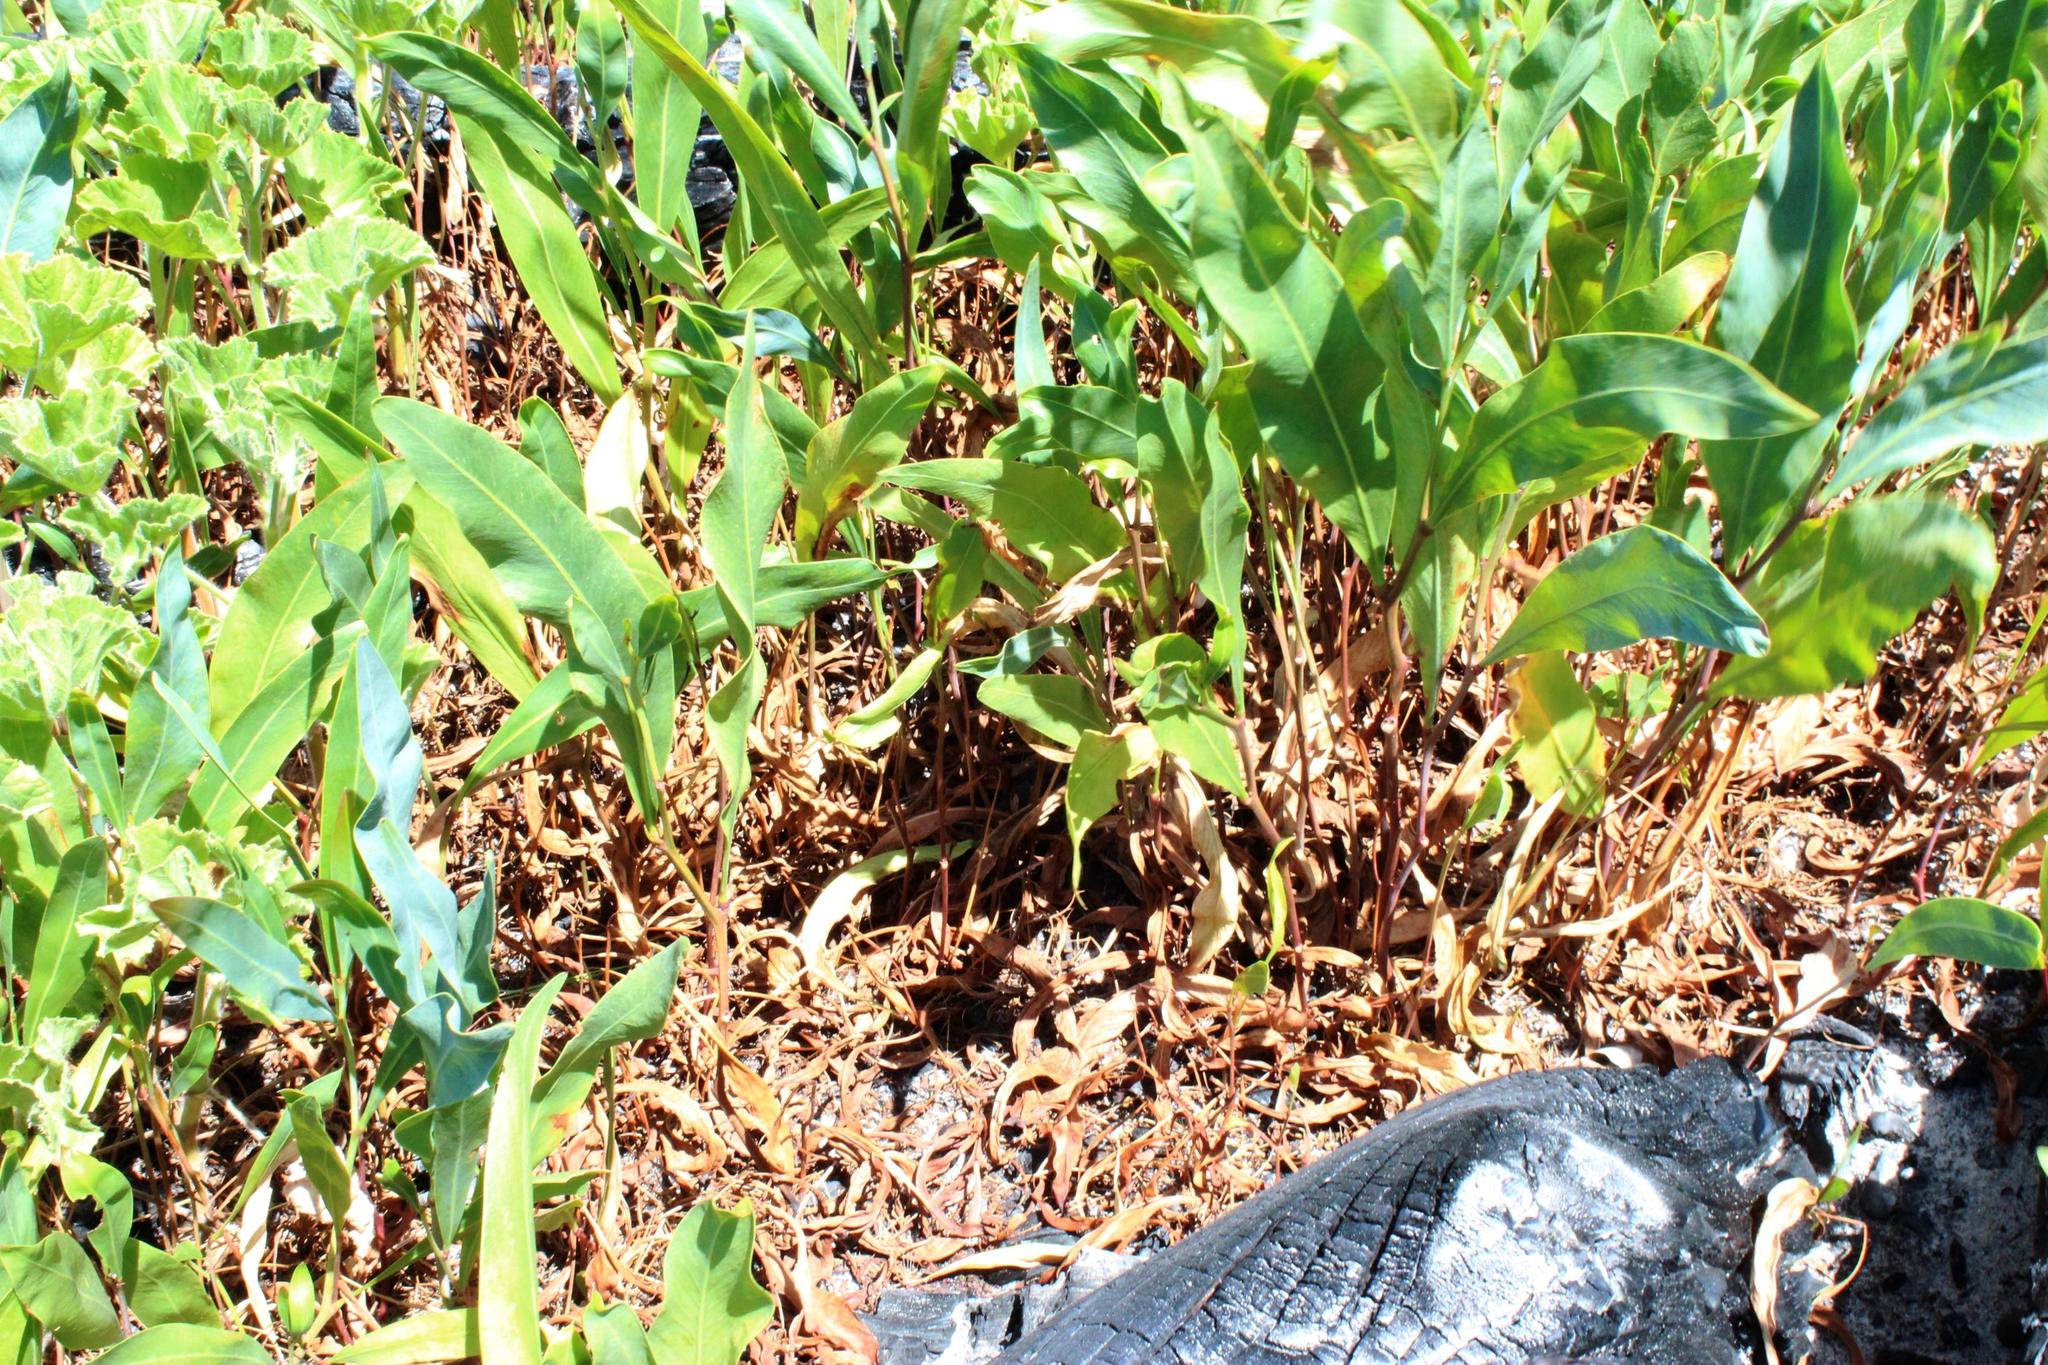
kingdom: Plantae
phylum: Tracheophyta
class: Magnoliopsida
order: Fabales
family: Fabaceae
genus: Acacia
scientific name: Acacia saligna
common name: Orange wattle
